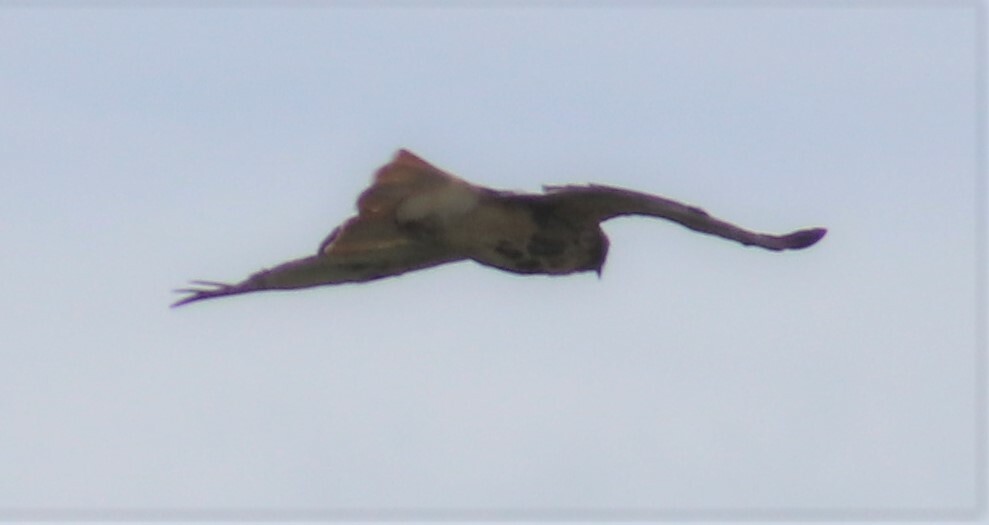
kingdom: Animalia
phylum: Chordata
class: Aves
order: Accipitriformes
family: Accipitridae
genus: Buteo
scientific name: Buteo jamaicensis
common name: Red-tailed hawk
